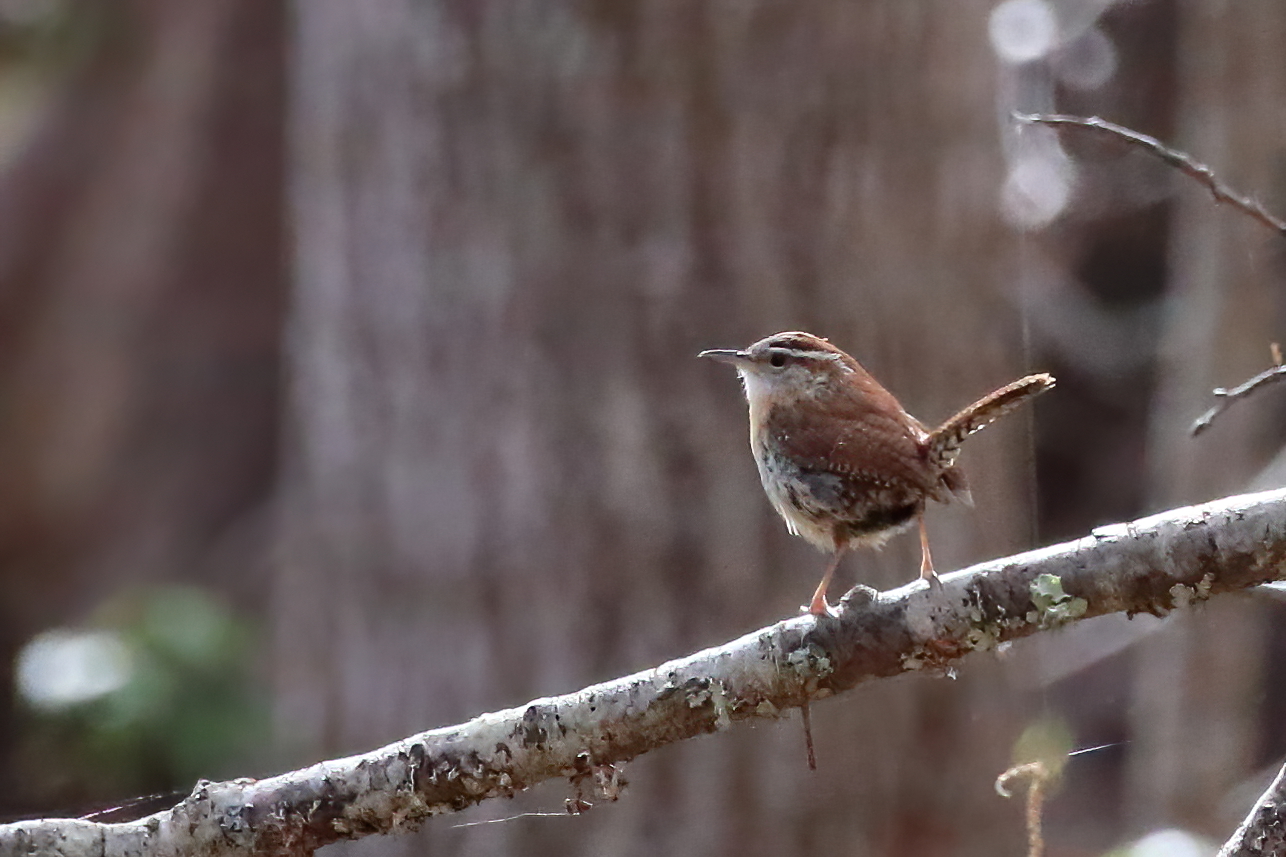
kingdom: Animalia
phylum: Chordata
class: Aves
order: Passeriformes
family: Troglodytidae
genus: Thryothorus
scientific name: Thryothorus ludovicianus
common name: Carolina wren
